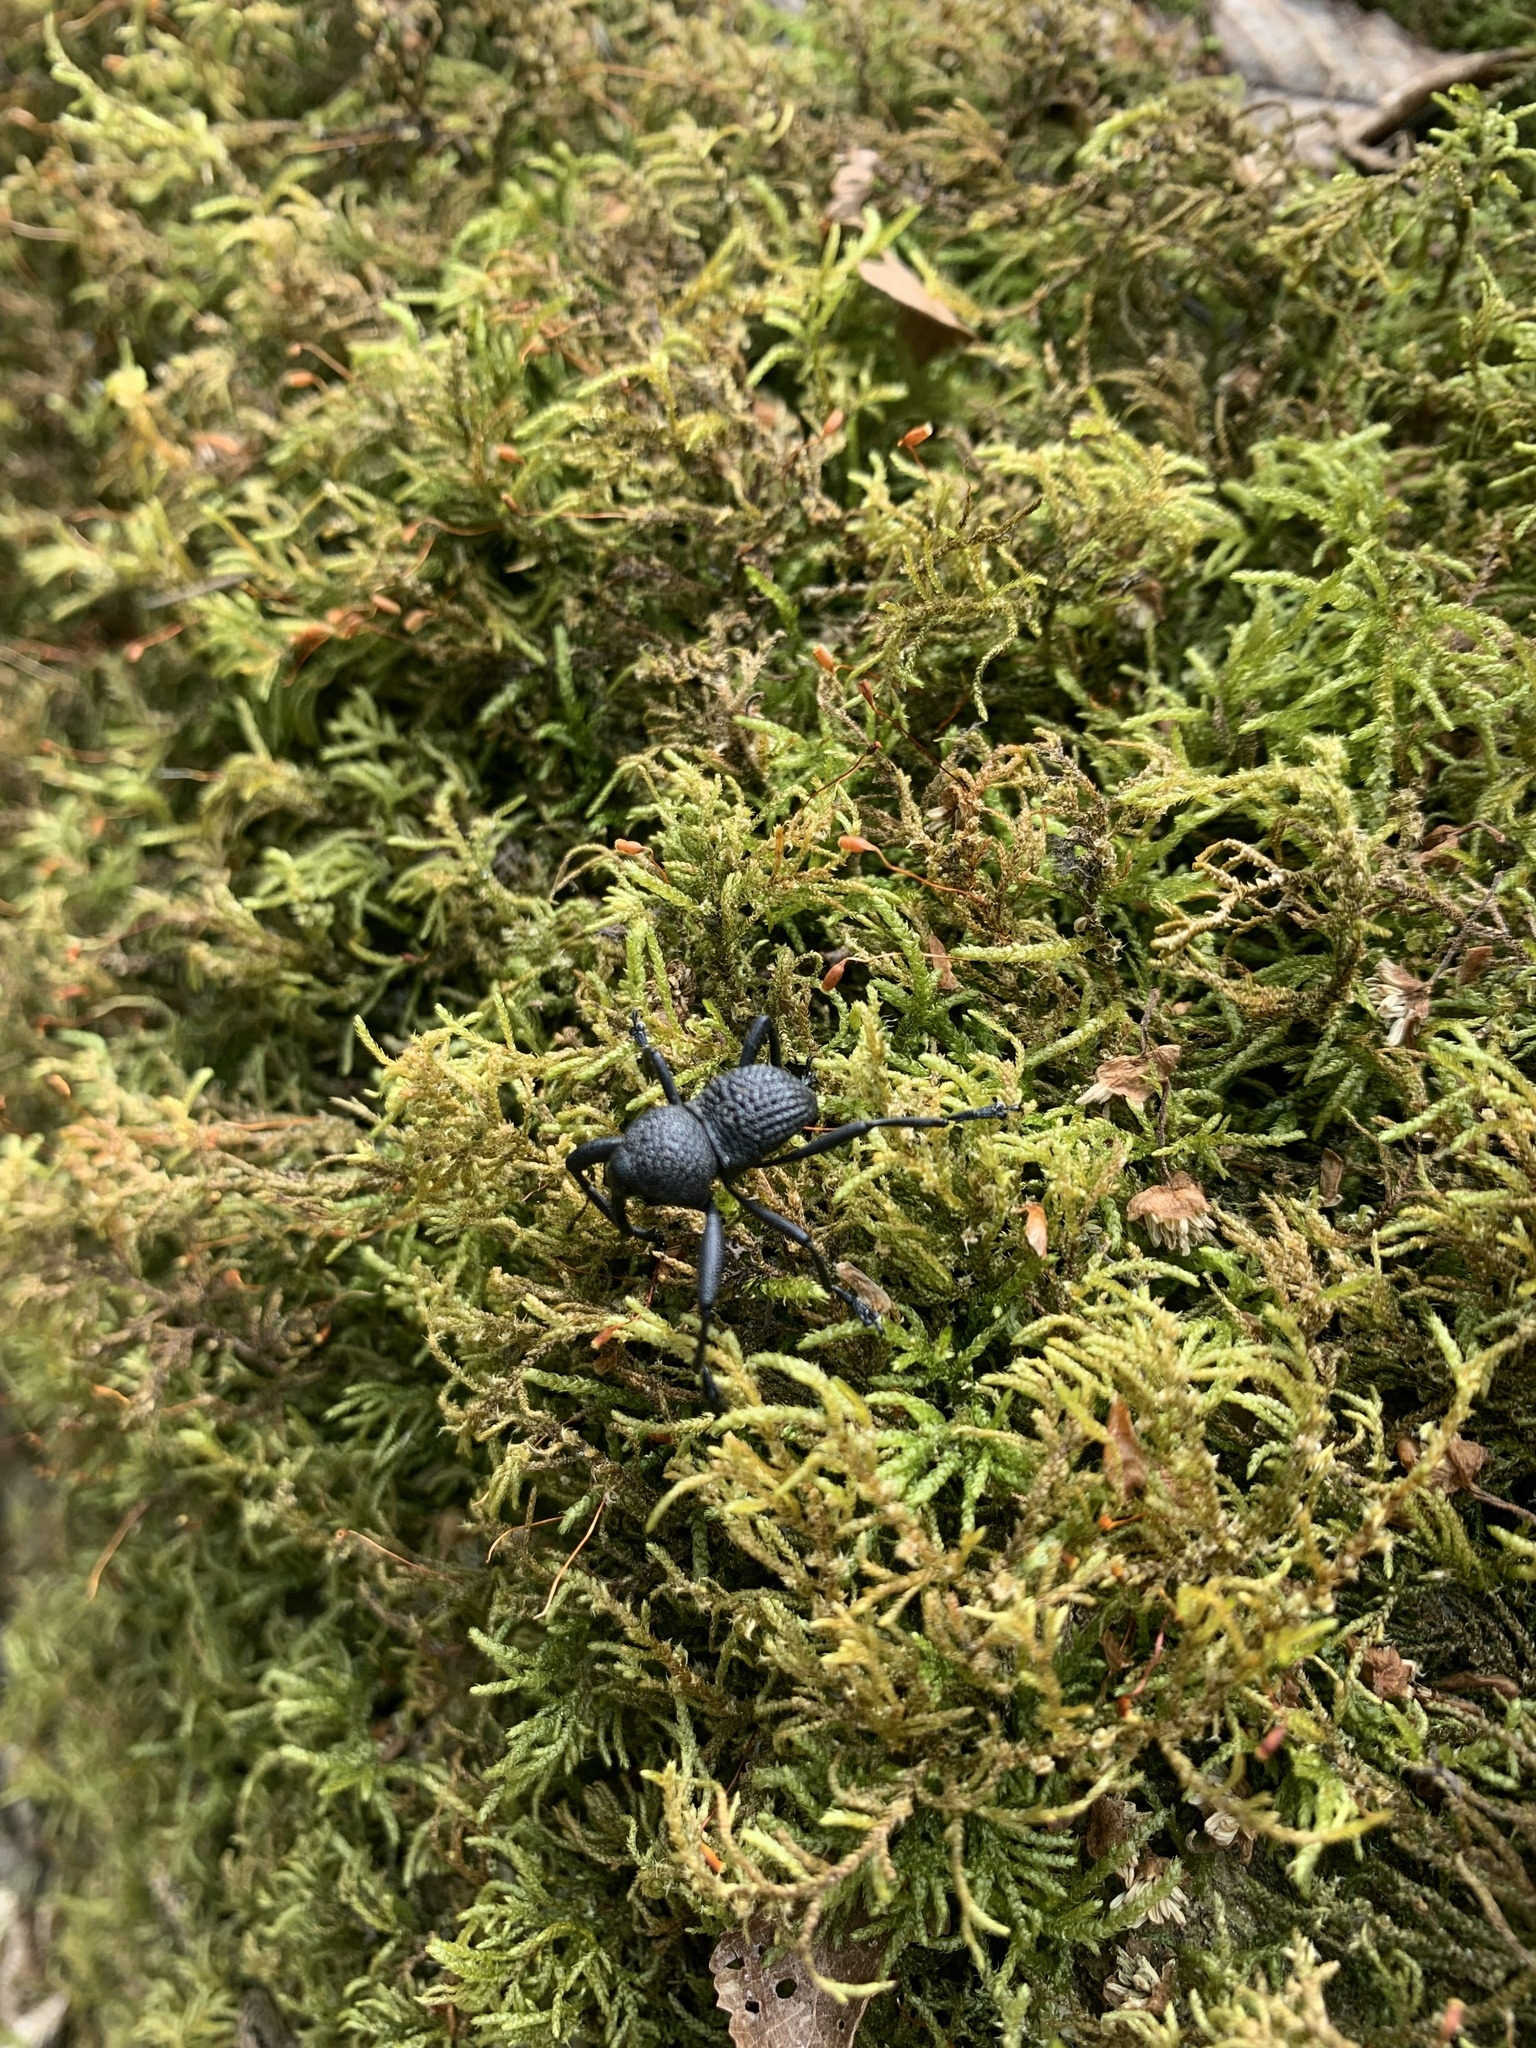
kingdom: Animalia
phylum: Arthropoda
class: Insecta
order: Coleoptera
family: Curculionidae
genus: Rhyephenes
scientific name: Rhyephenes maillei
